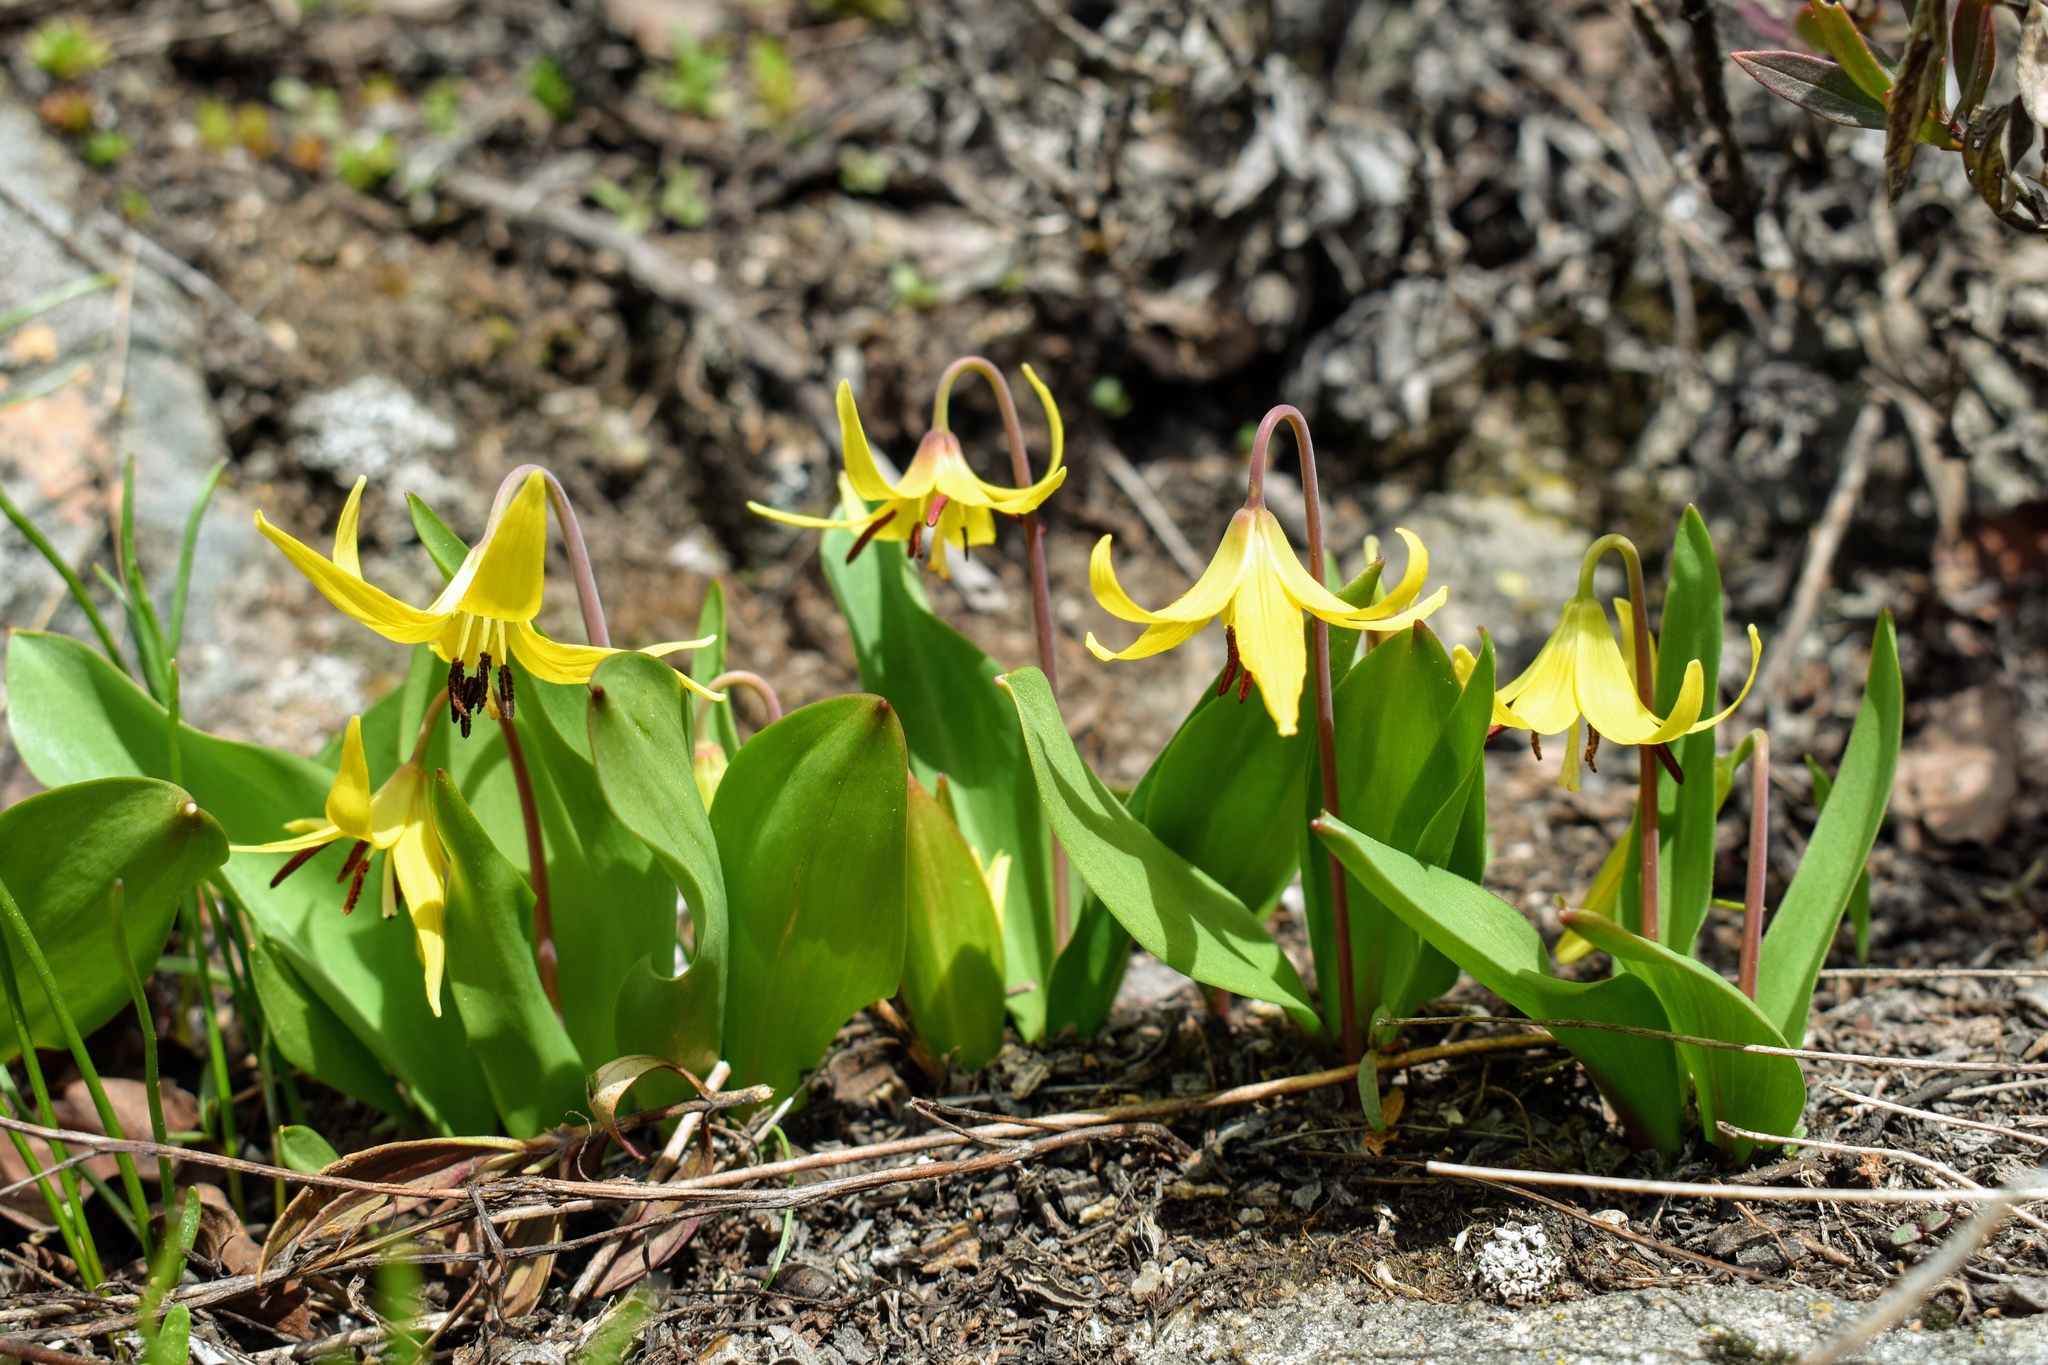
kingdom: Plantae
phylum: Tracheophyta
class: Liliopsida
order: Liliales
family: Liliaceae
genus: Erythronium
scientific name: Erythronium grandiflorum
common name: Avalanche-lily
